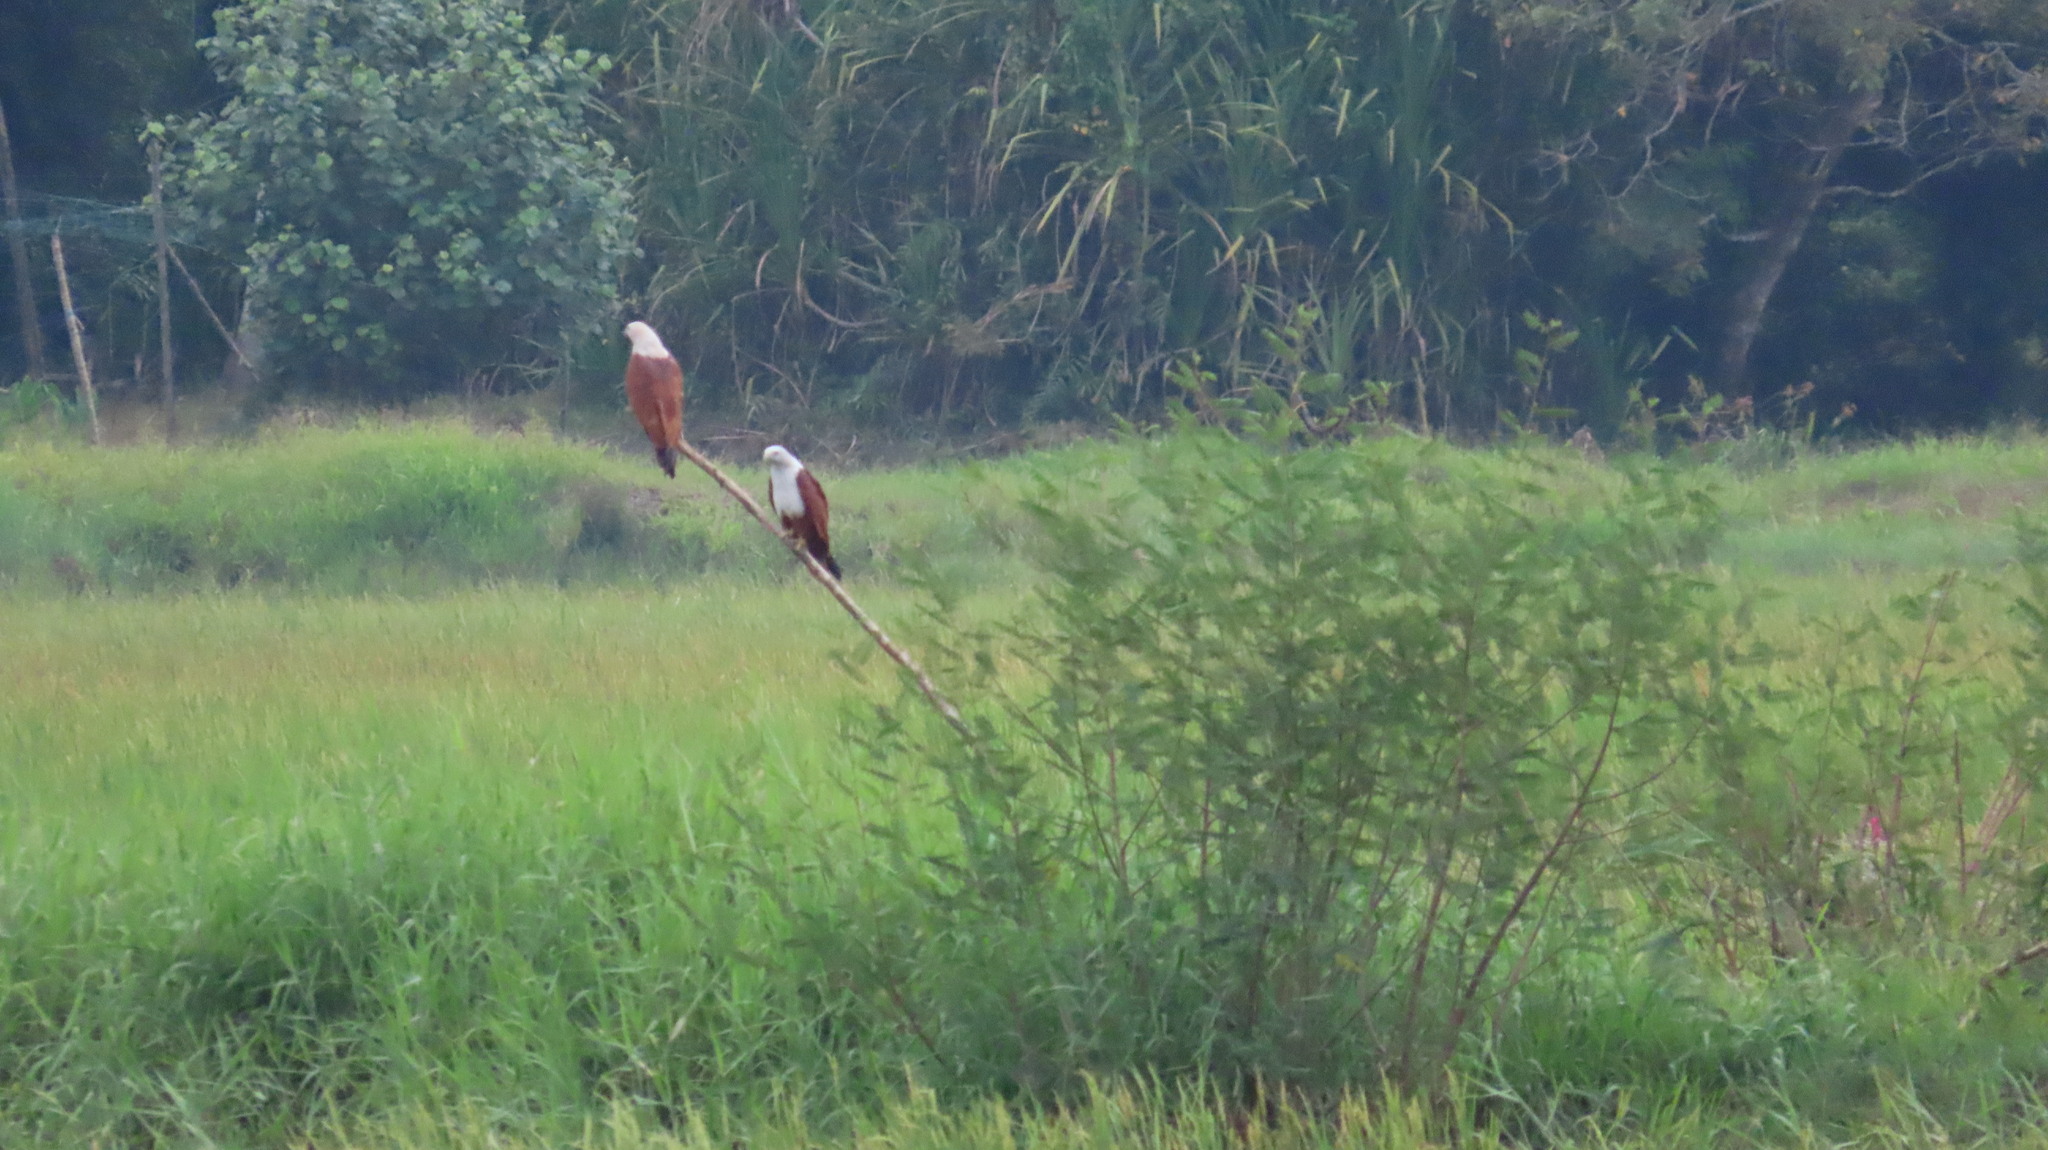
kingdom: Animalia
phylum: Chordata
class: Aves
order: Accipitriformes
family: Accipitridae
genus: Haliastur
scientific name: Haliastur indus
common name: Brahminy kite
